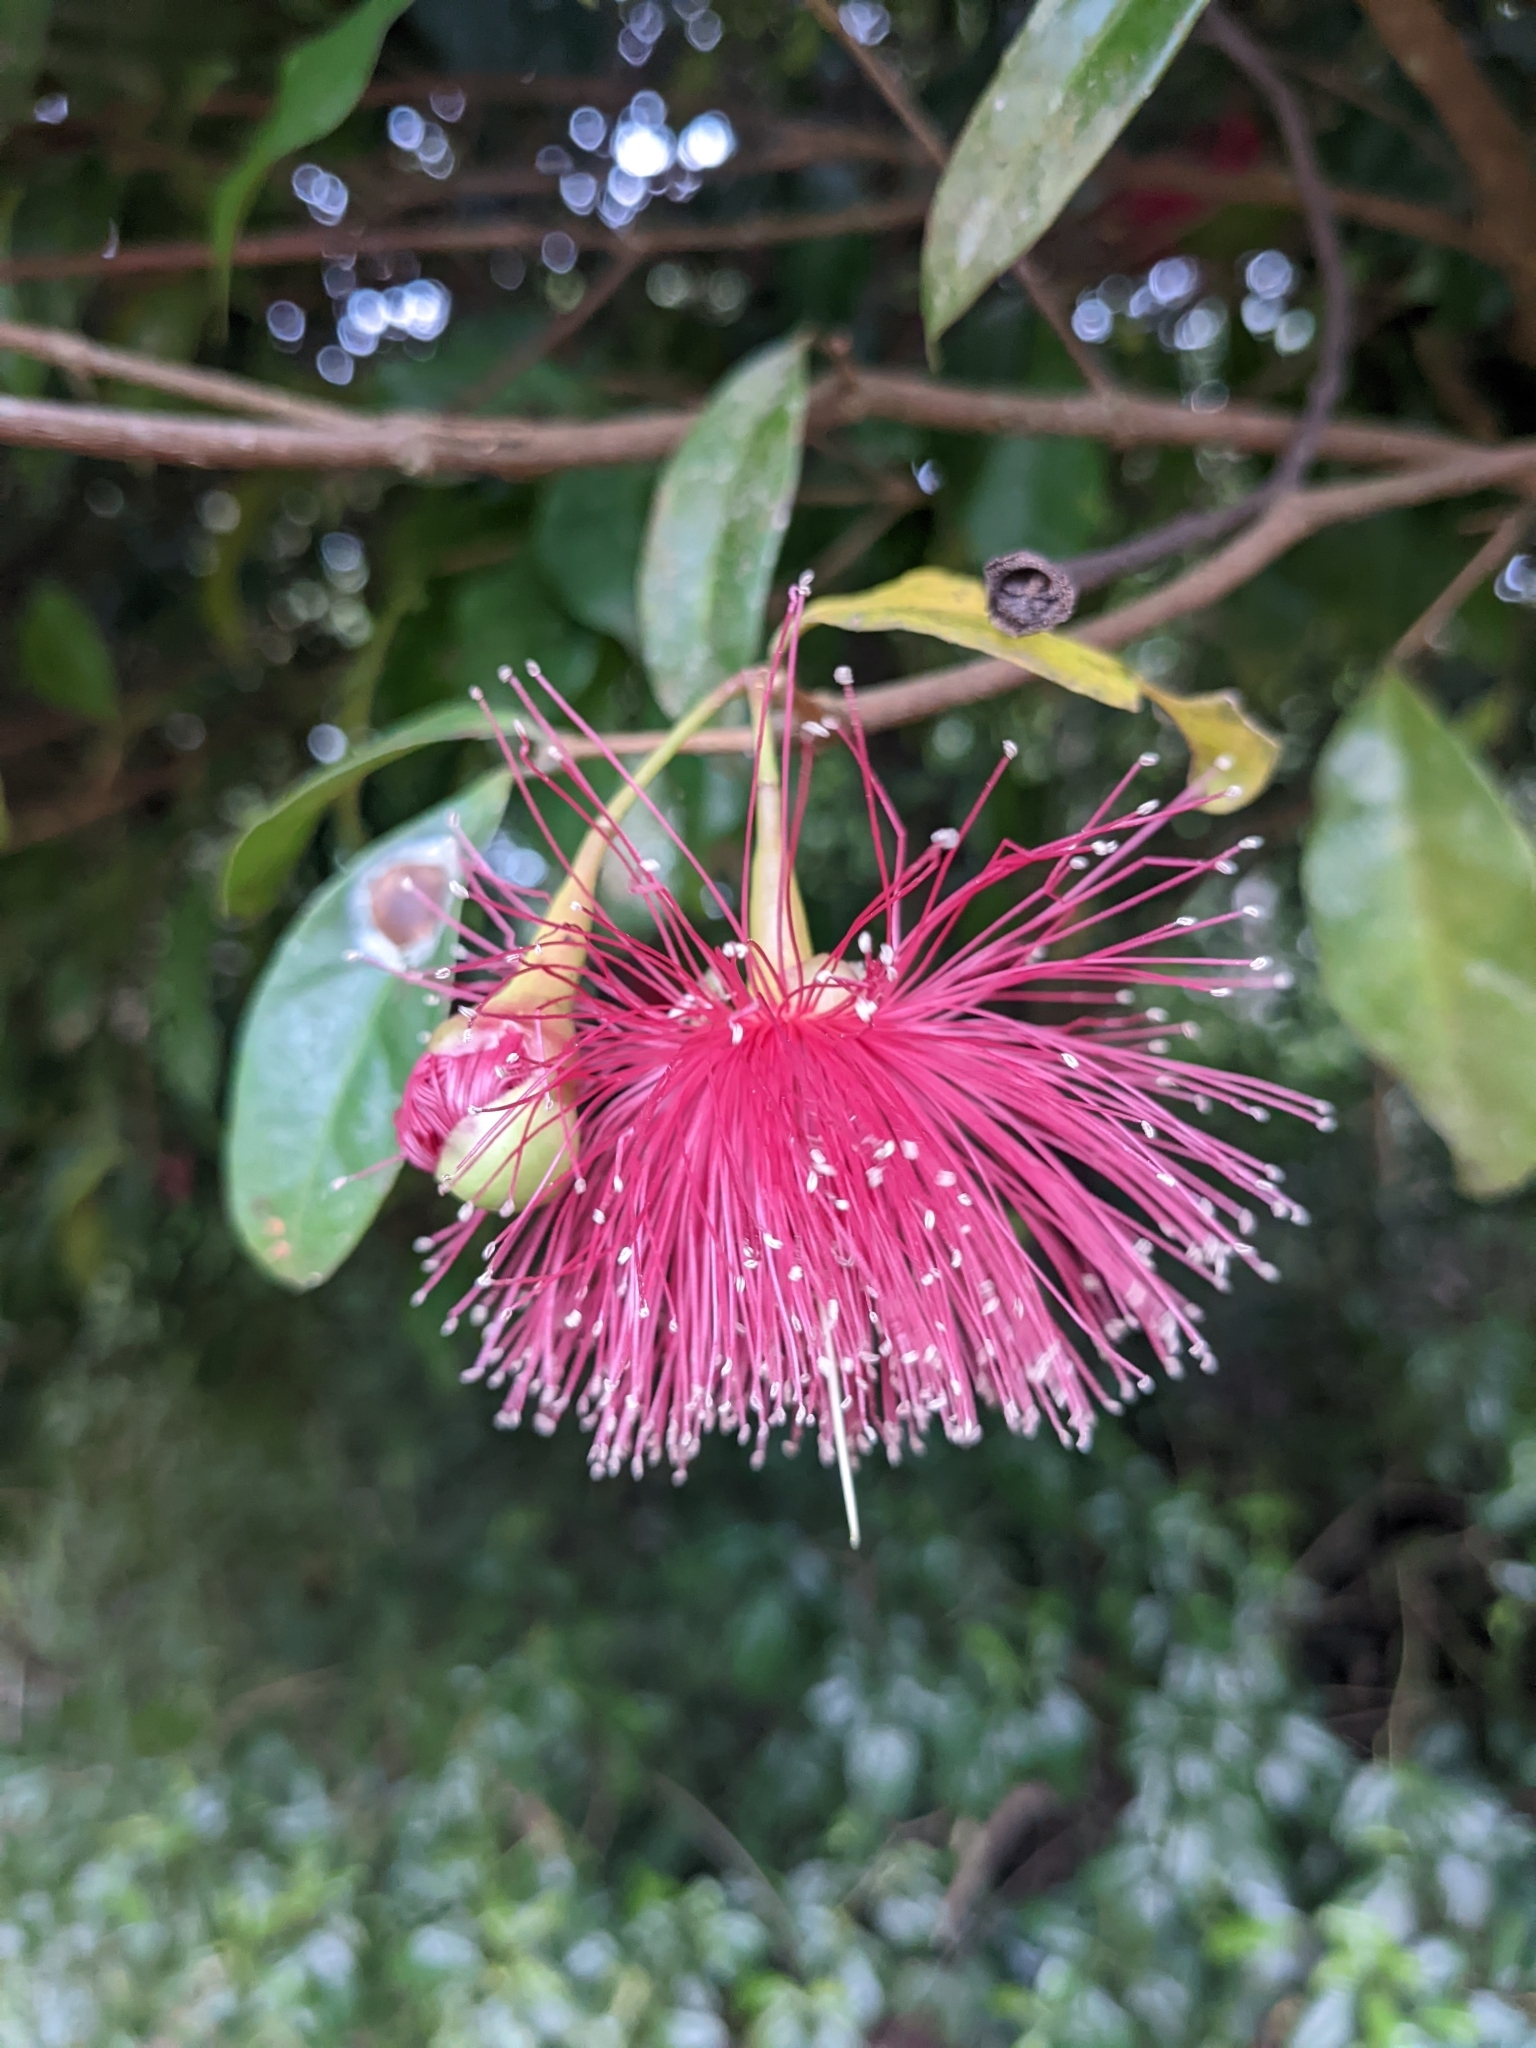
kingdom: Plantae
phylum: Tracheophyta
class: Magnoliopsida
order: Myrtales
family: Myrtaceae
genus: Syzygium
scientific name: Syzygium laetum
